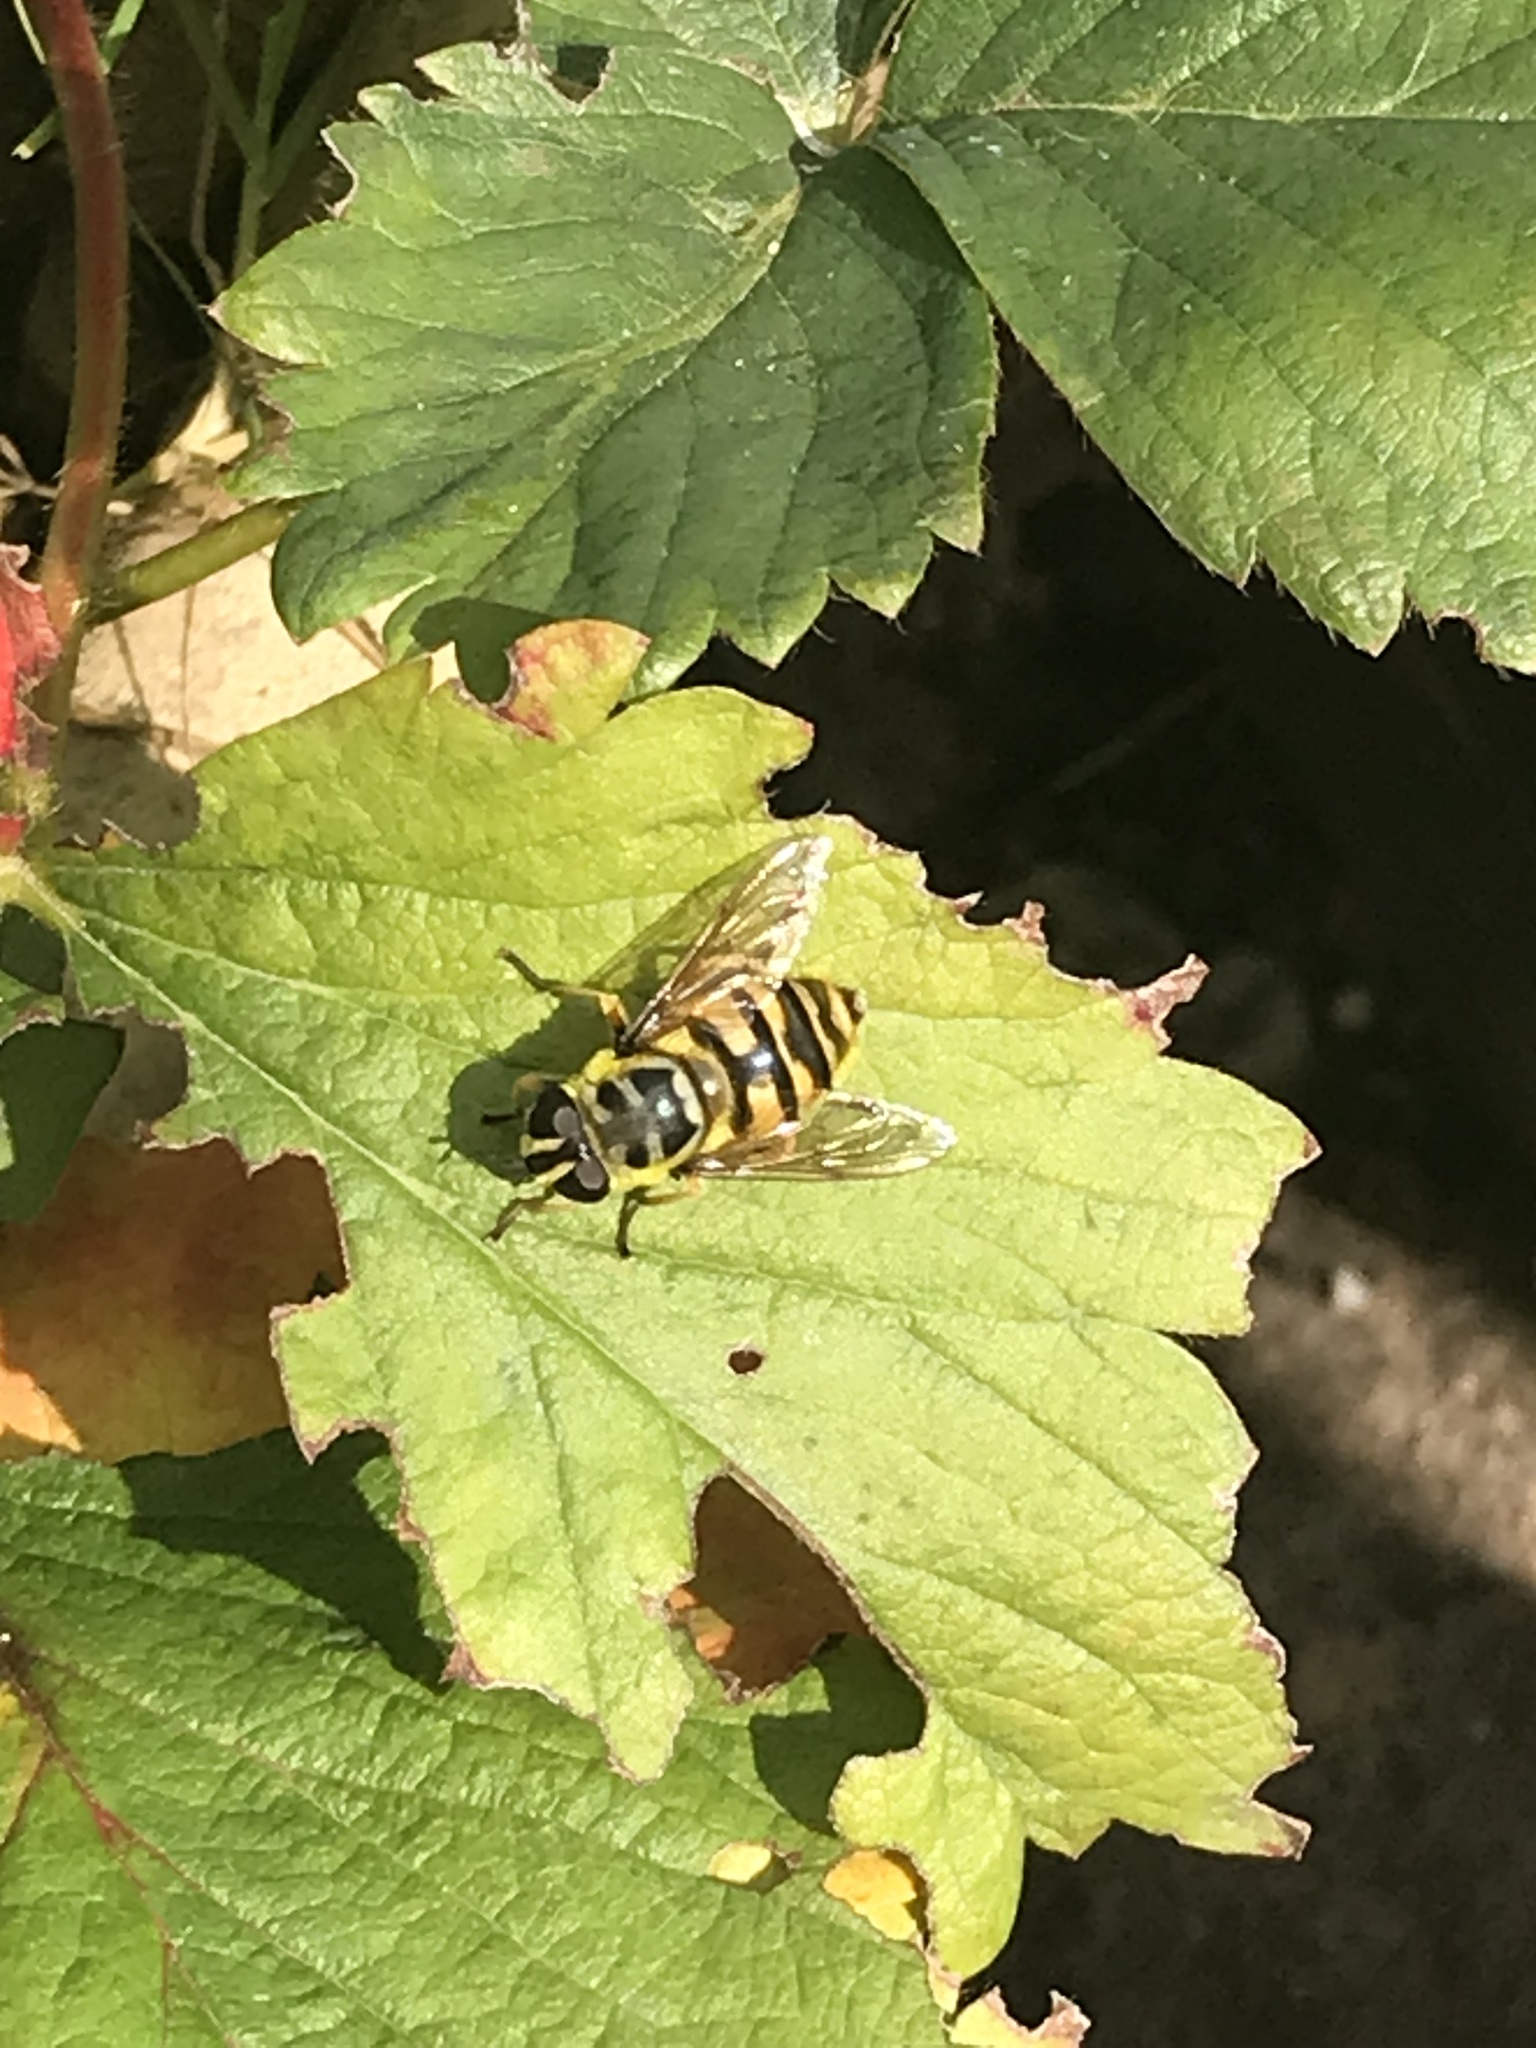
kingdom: Animalia
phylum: Arthropoda
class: Insecta
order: Diptera
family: Syrphidae
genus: Myathropa
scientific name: Myathropa florea
